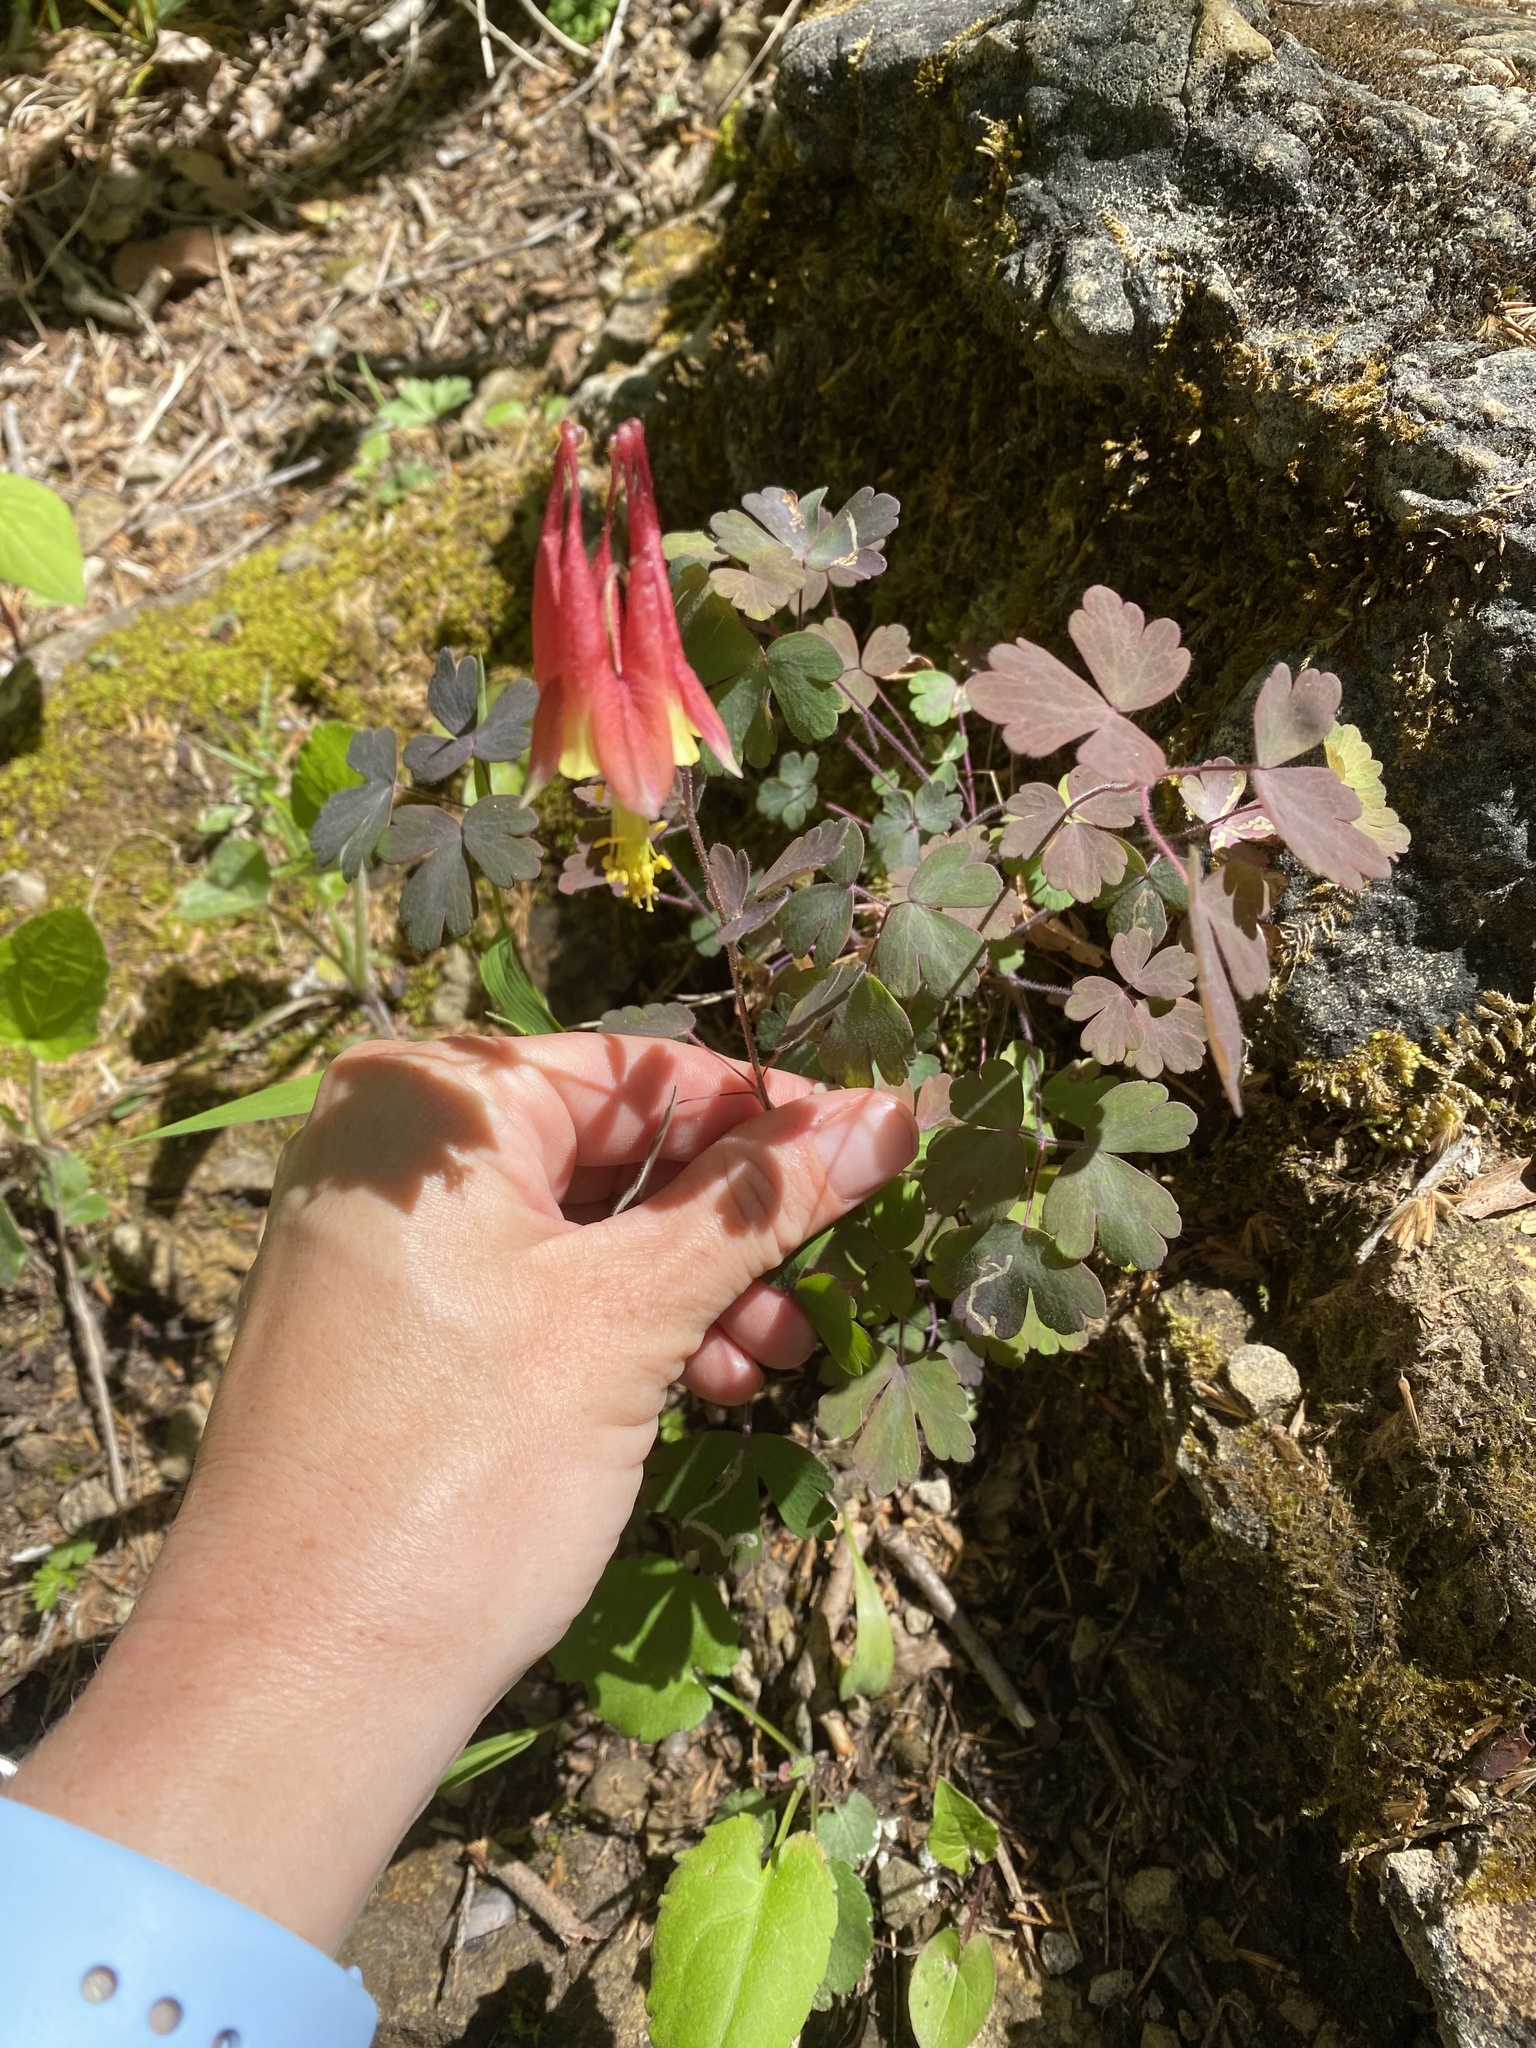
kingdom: Plantae
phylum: Tracheophyta
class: Magnoliopsida
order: Ranunculales
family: Ranunculaceae
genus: Aquilegia
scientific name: Aquilegia canadensis
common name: American columbine
